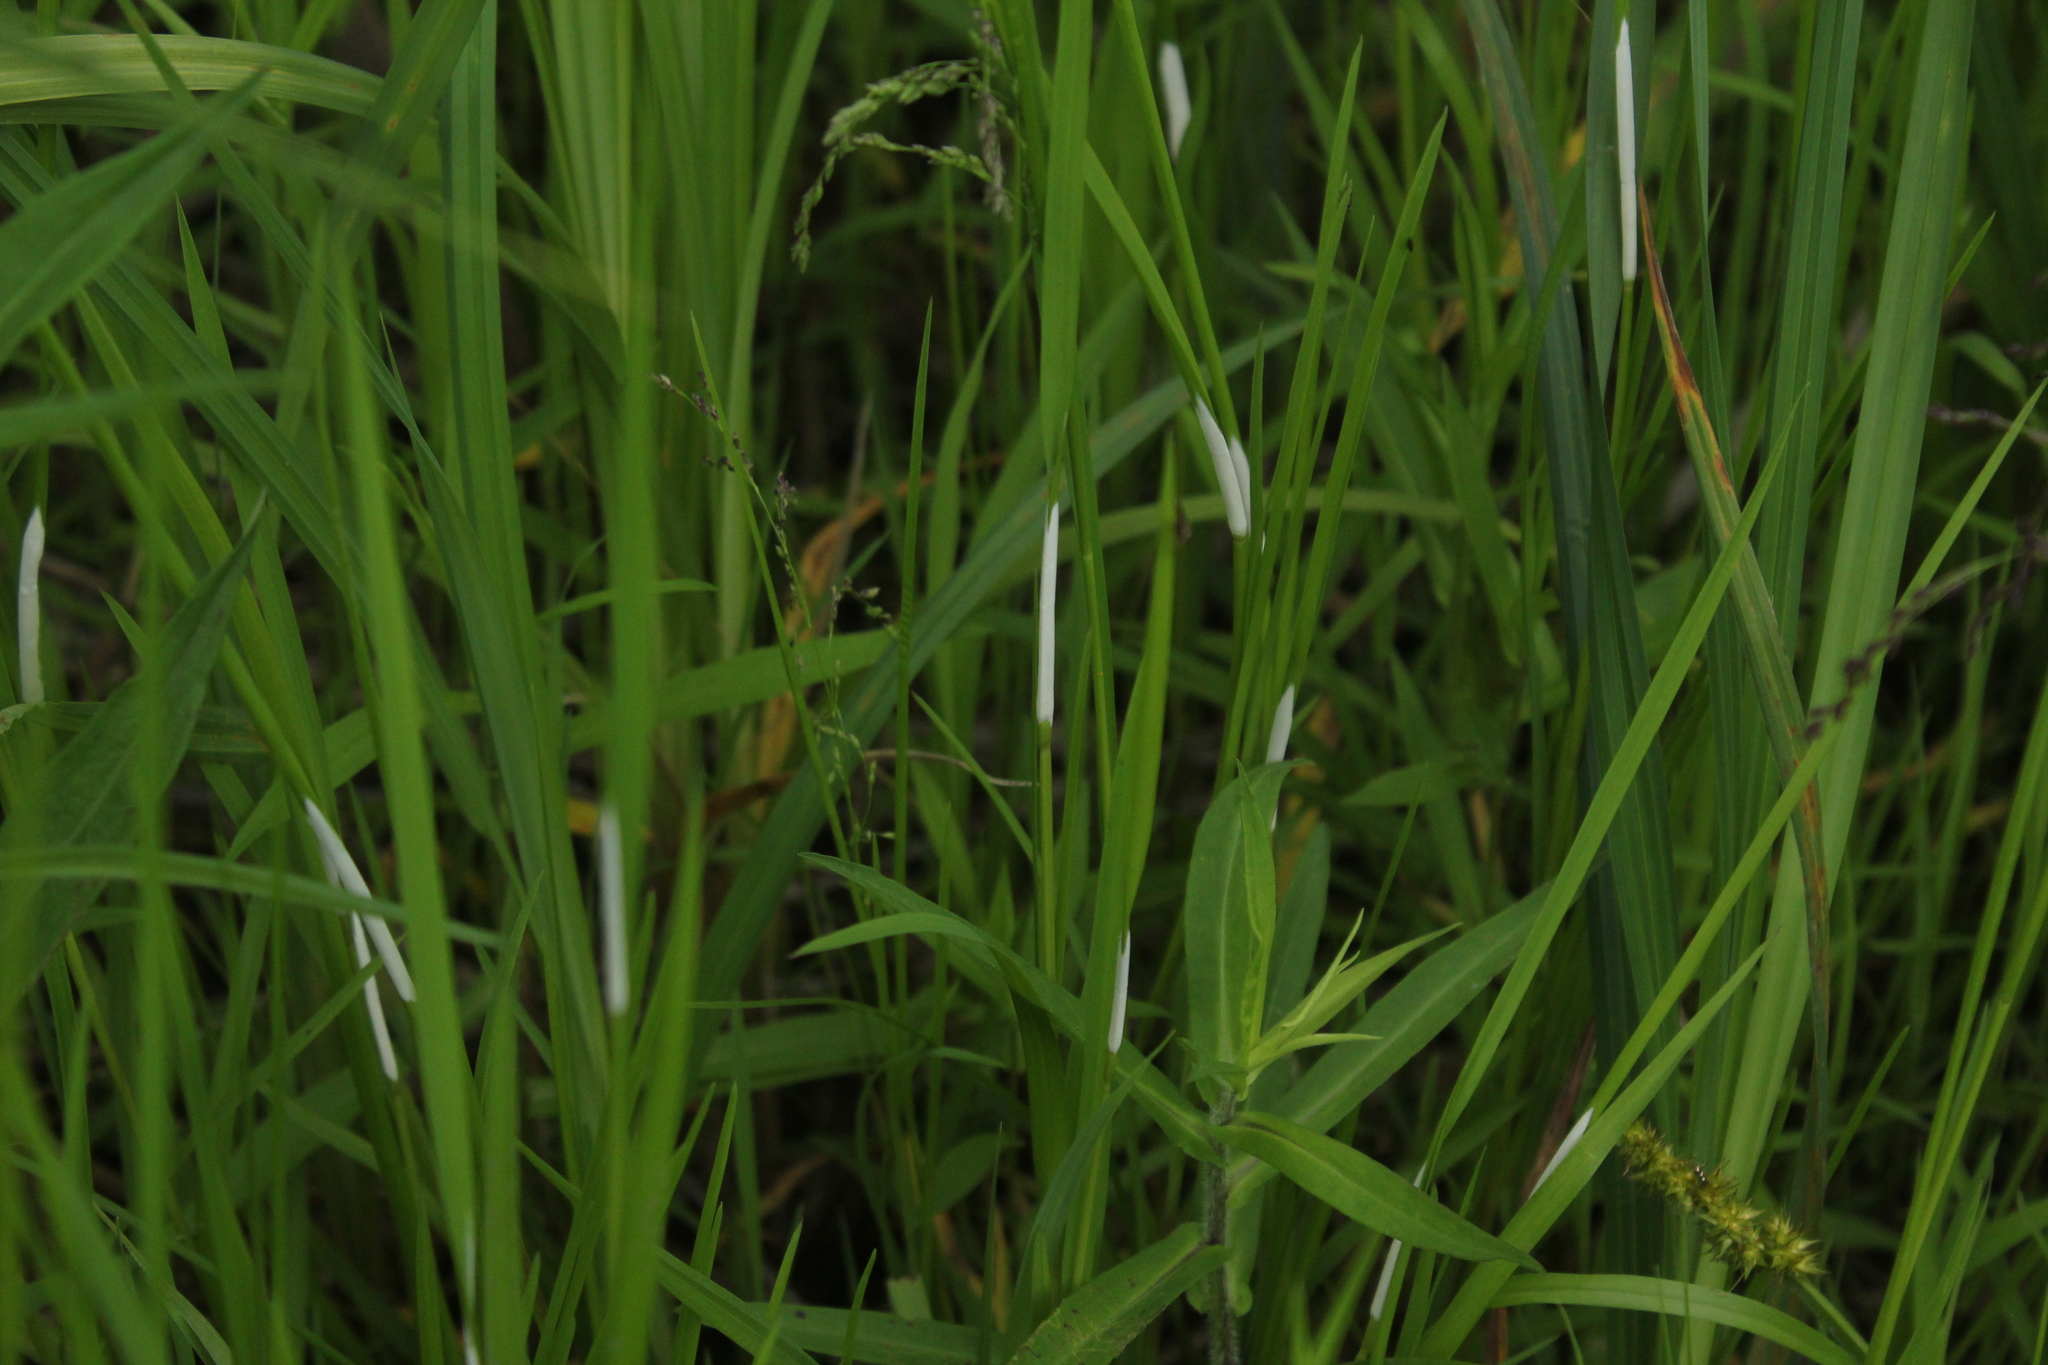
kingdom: Fungi
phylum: Ascomycota
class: Sordariomycetes
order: Hypocreales
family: Clavicipitaceae
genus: Epichloe
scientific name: Epichloe glyceriae
